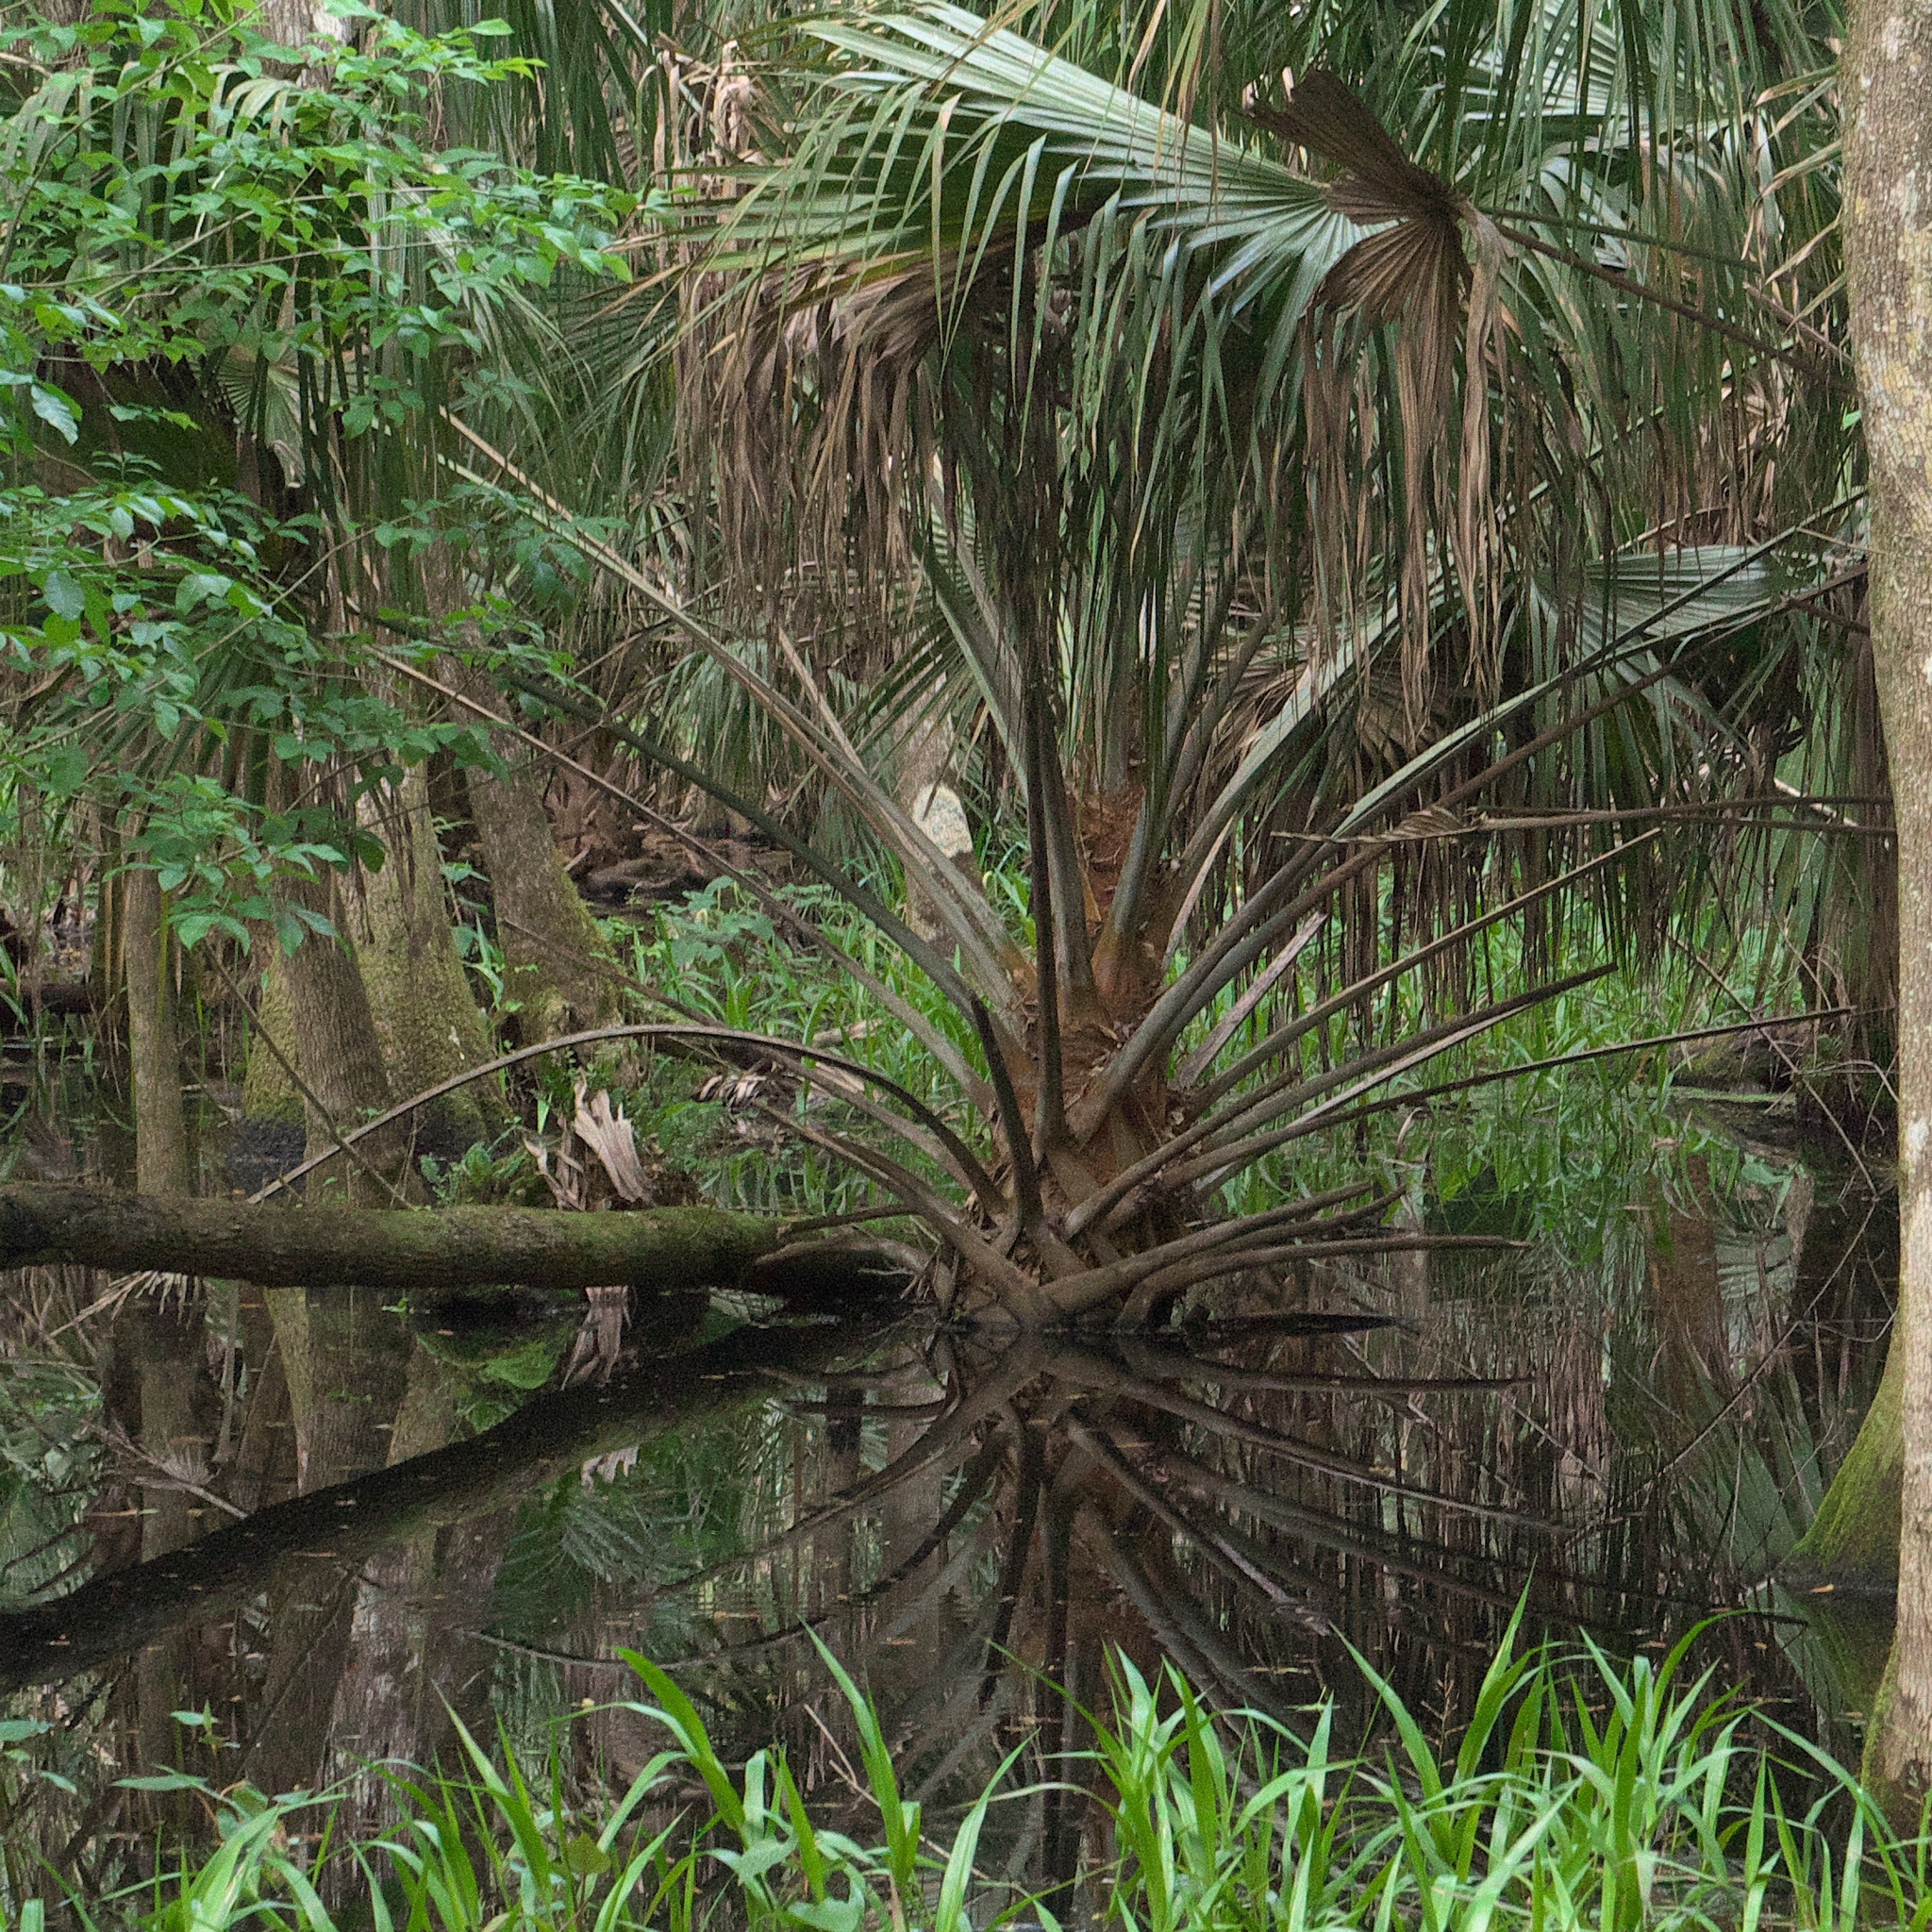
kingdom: Plantae
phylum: Tracheophyta
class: Liliopsida
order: Arecales
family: Arecaceae
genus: Sabal
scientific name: Sabal palmetto
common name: Blue palmetto
